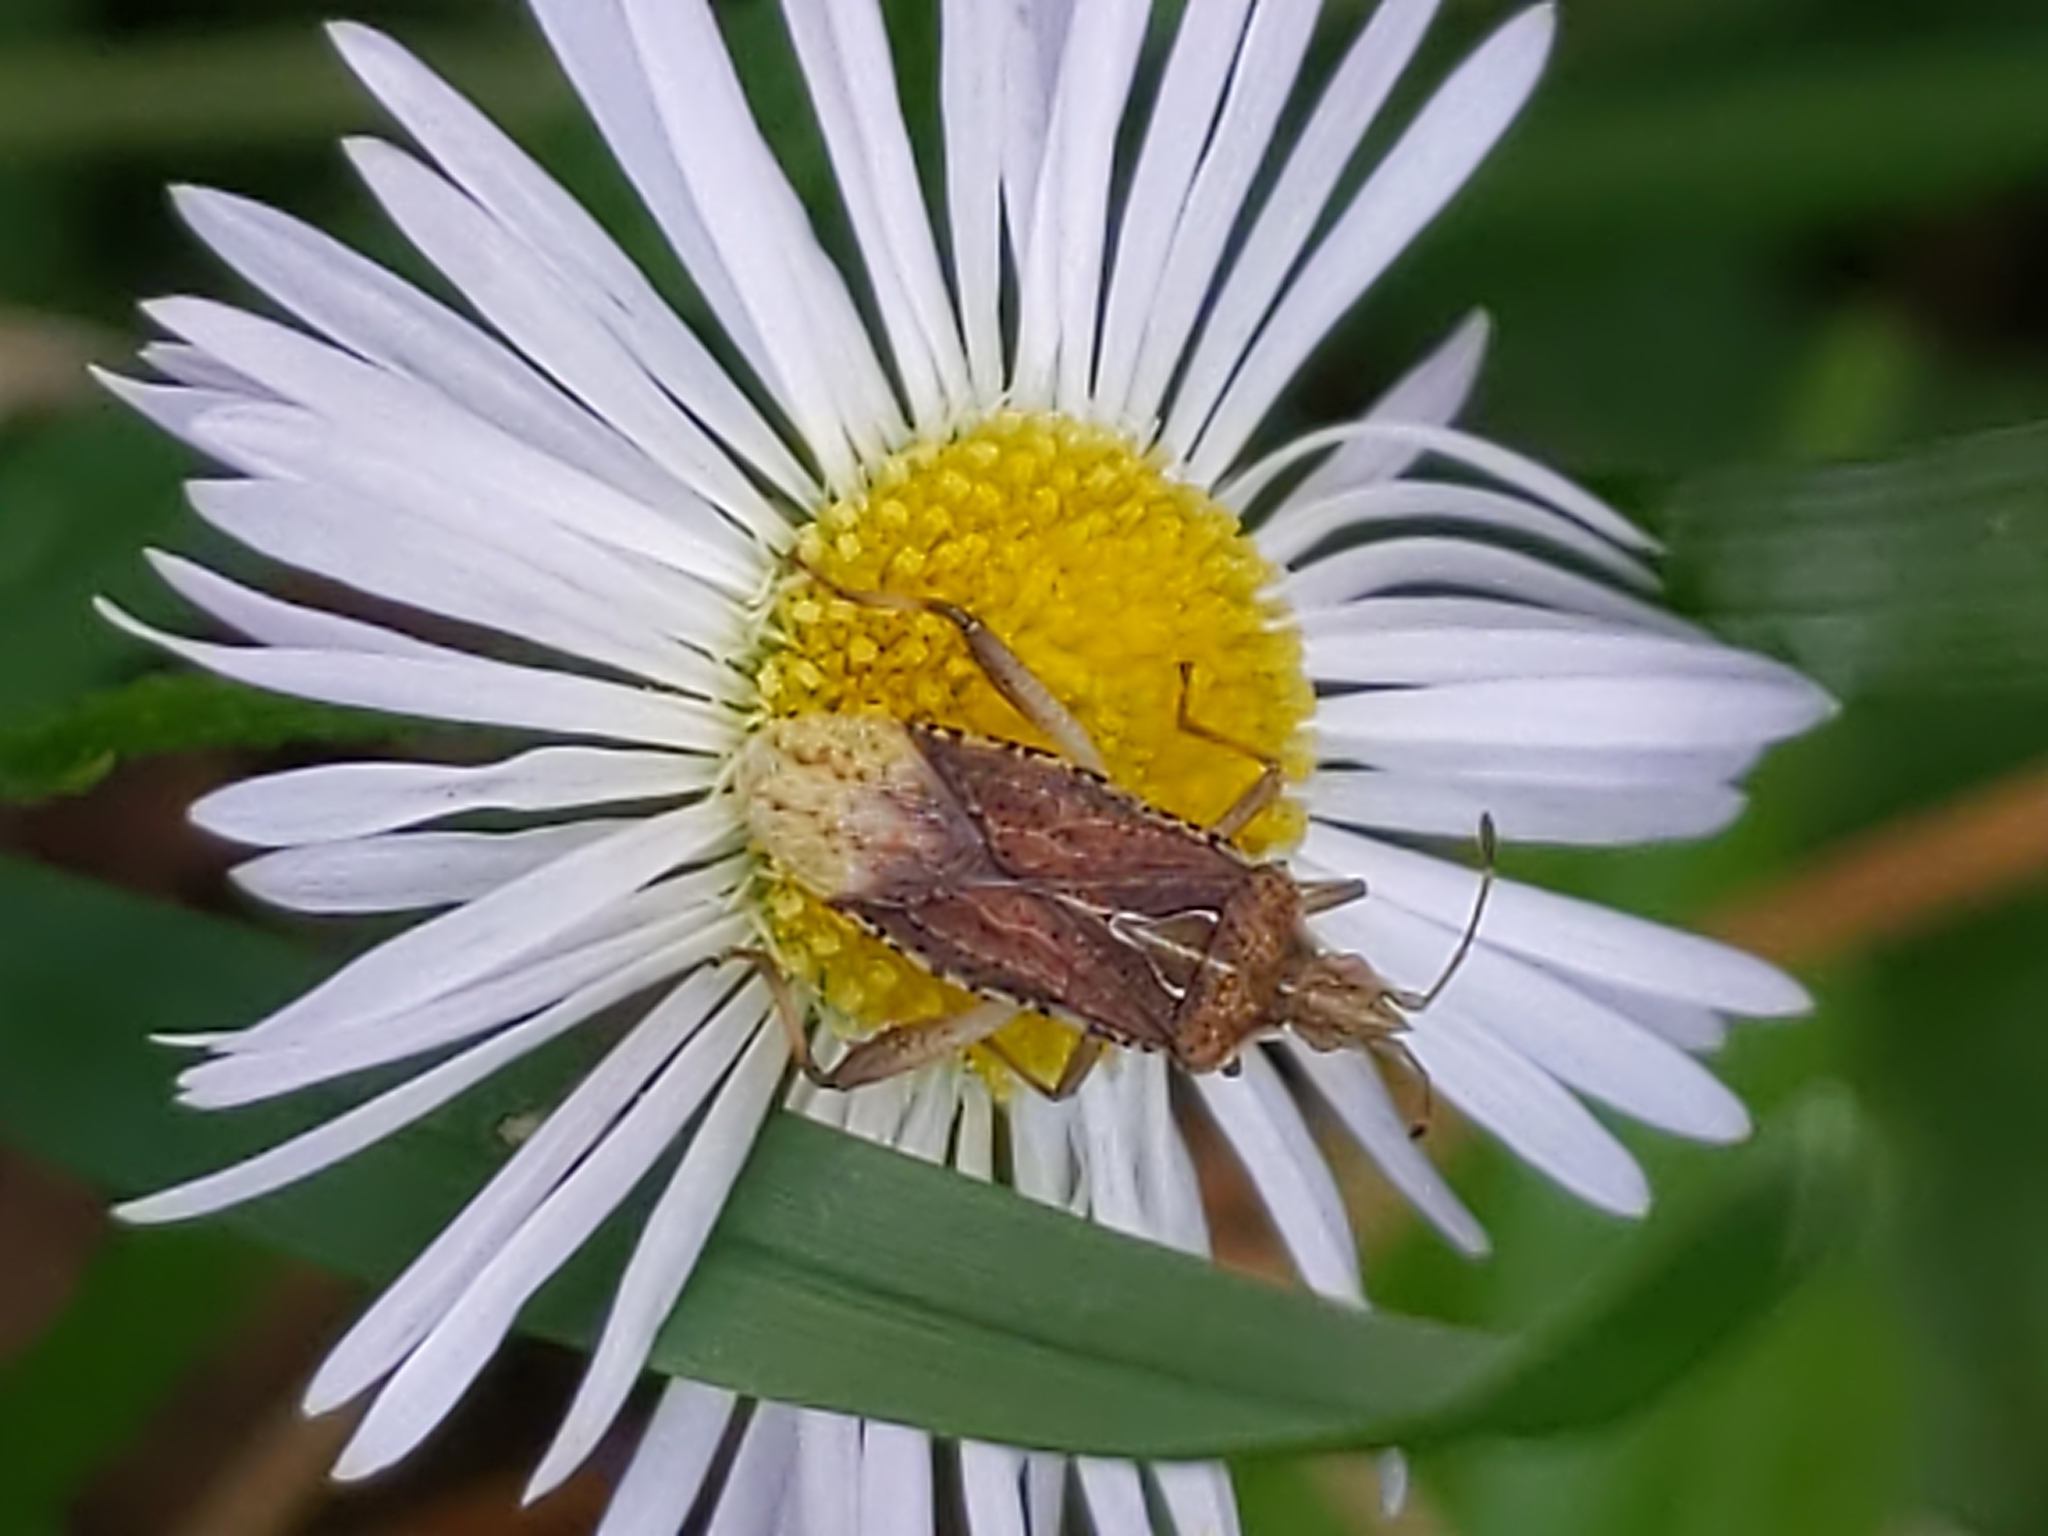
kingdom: Animalia
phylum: Arthropoda
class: Insecta
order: Hemiptera
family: Rhopalidae
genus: Harmostes
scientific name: Harmostes fraterculus
